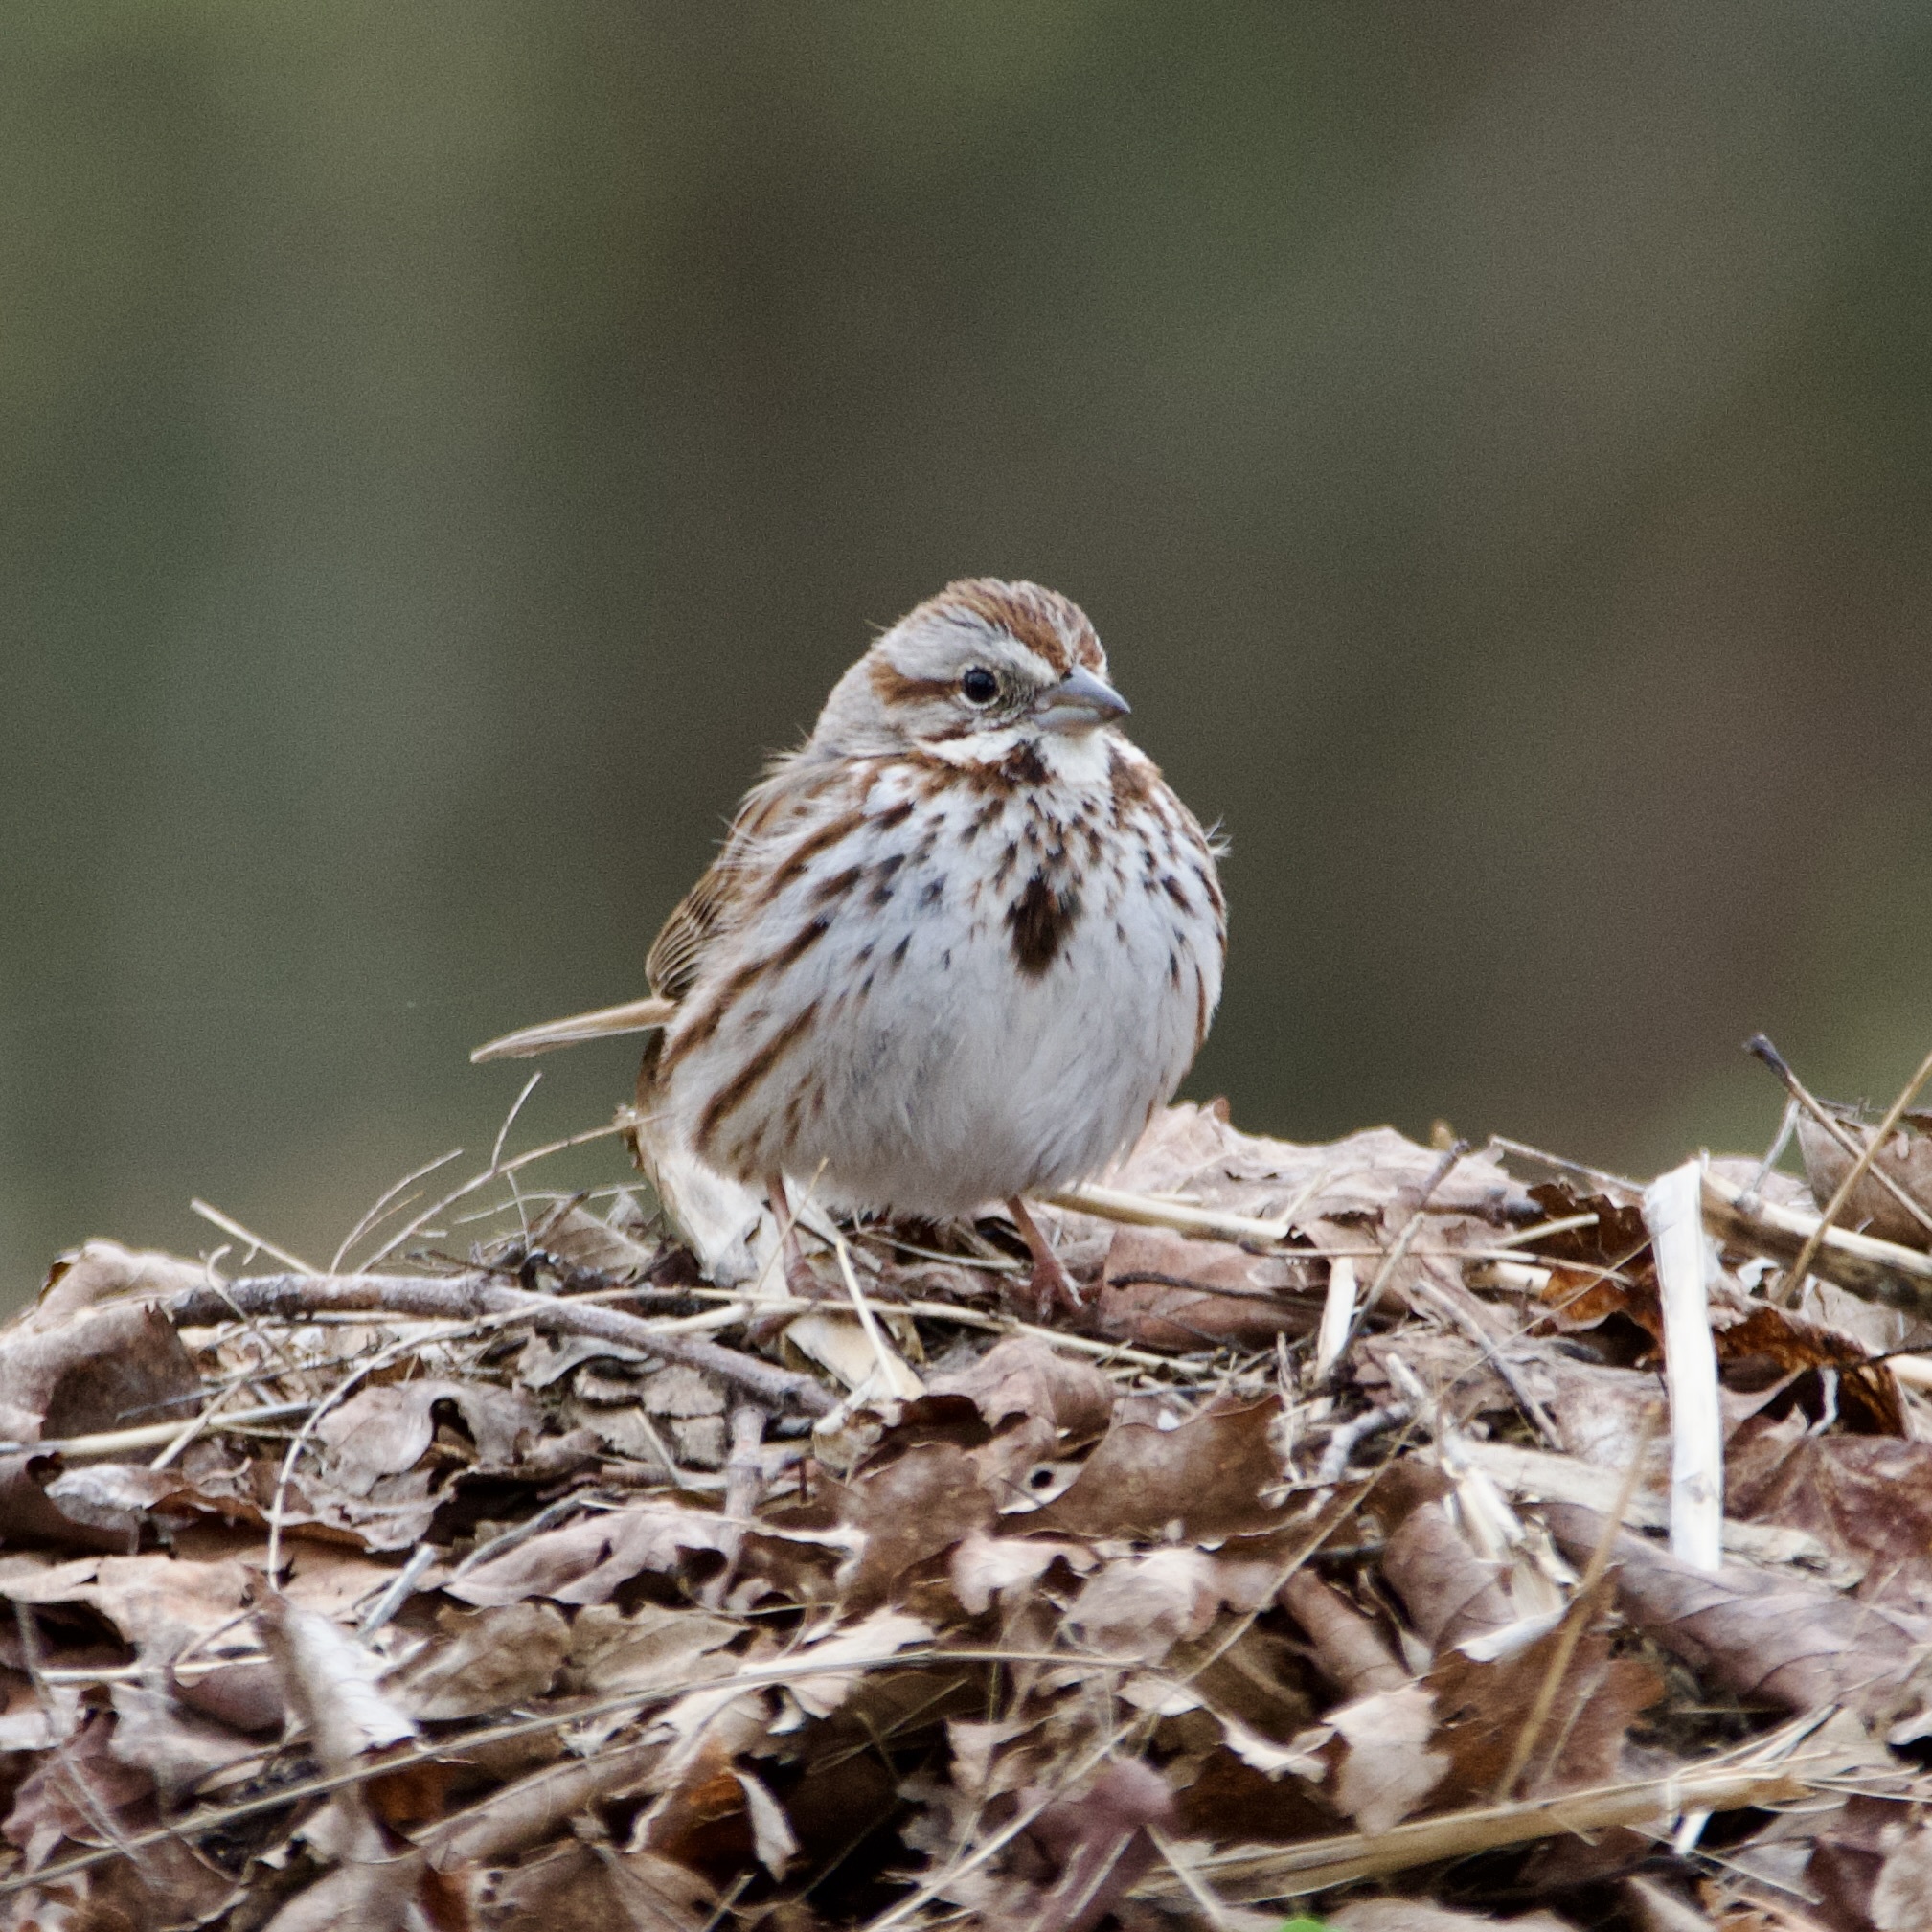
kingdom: Animalia
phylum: Chordata
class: Aves
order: Passeriformes
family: Passerellidae
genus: Melospiza
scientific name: Melospiza melodia
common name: Song sparrow
